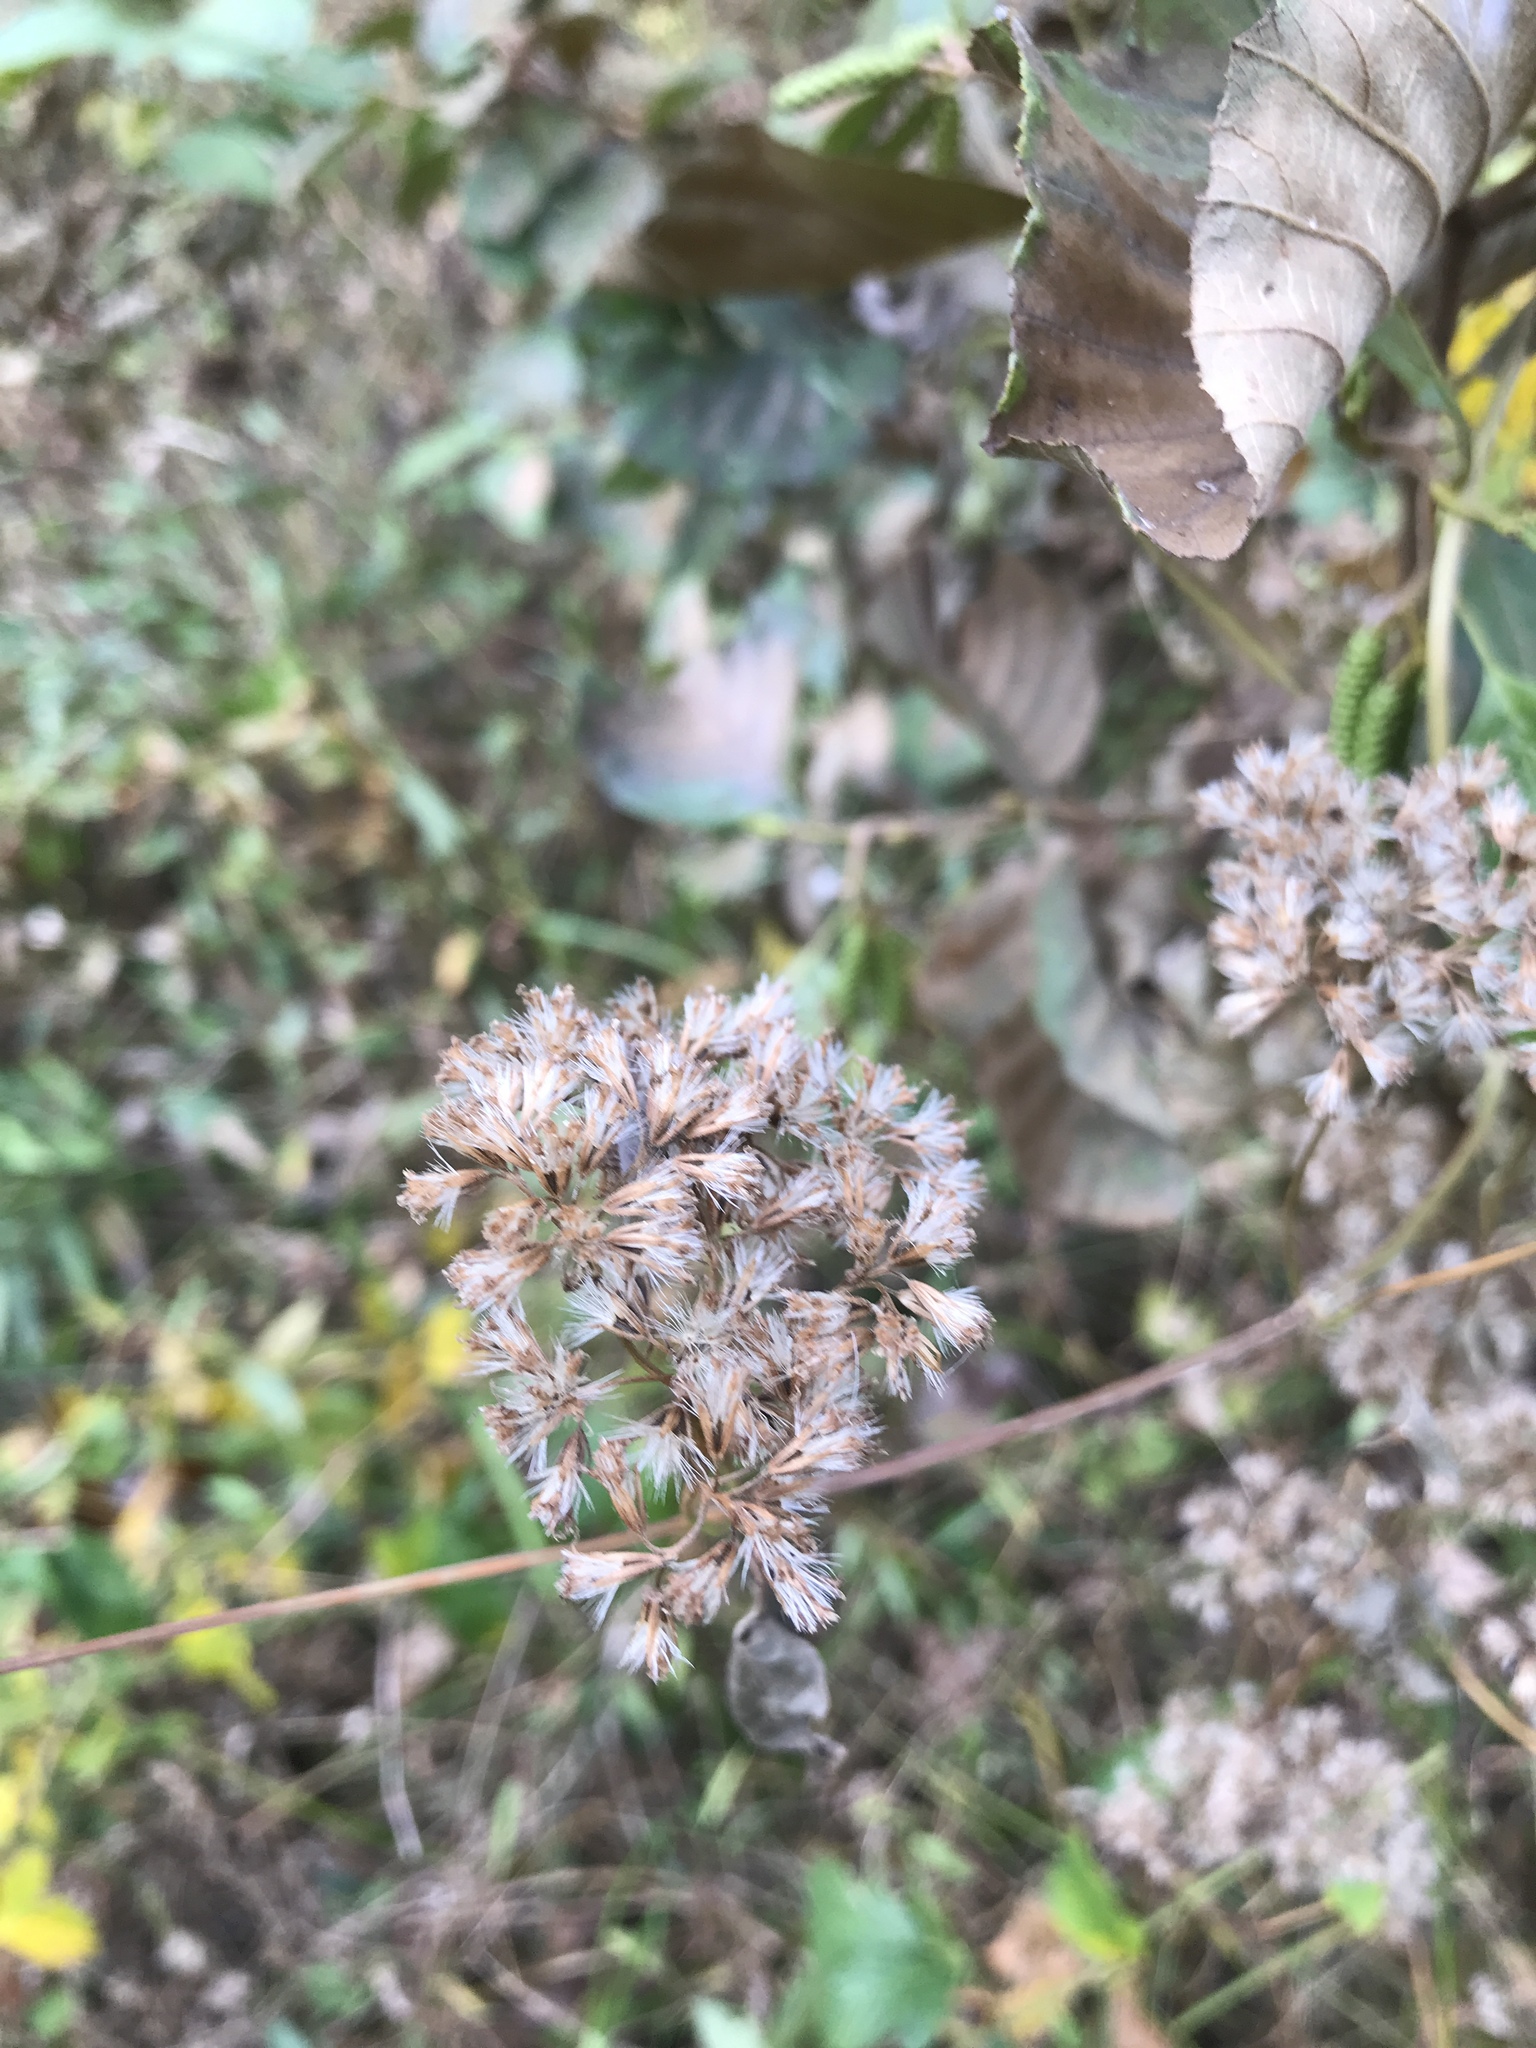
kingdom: Plantae
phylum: Tracheophyta
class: Magnoliopsida
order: Asterales
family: Asteraceae
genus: Mikania
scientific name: Mikania scandens
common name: Climbing hempvine
